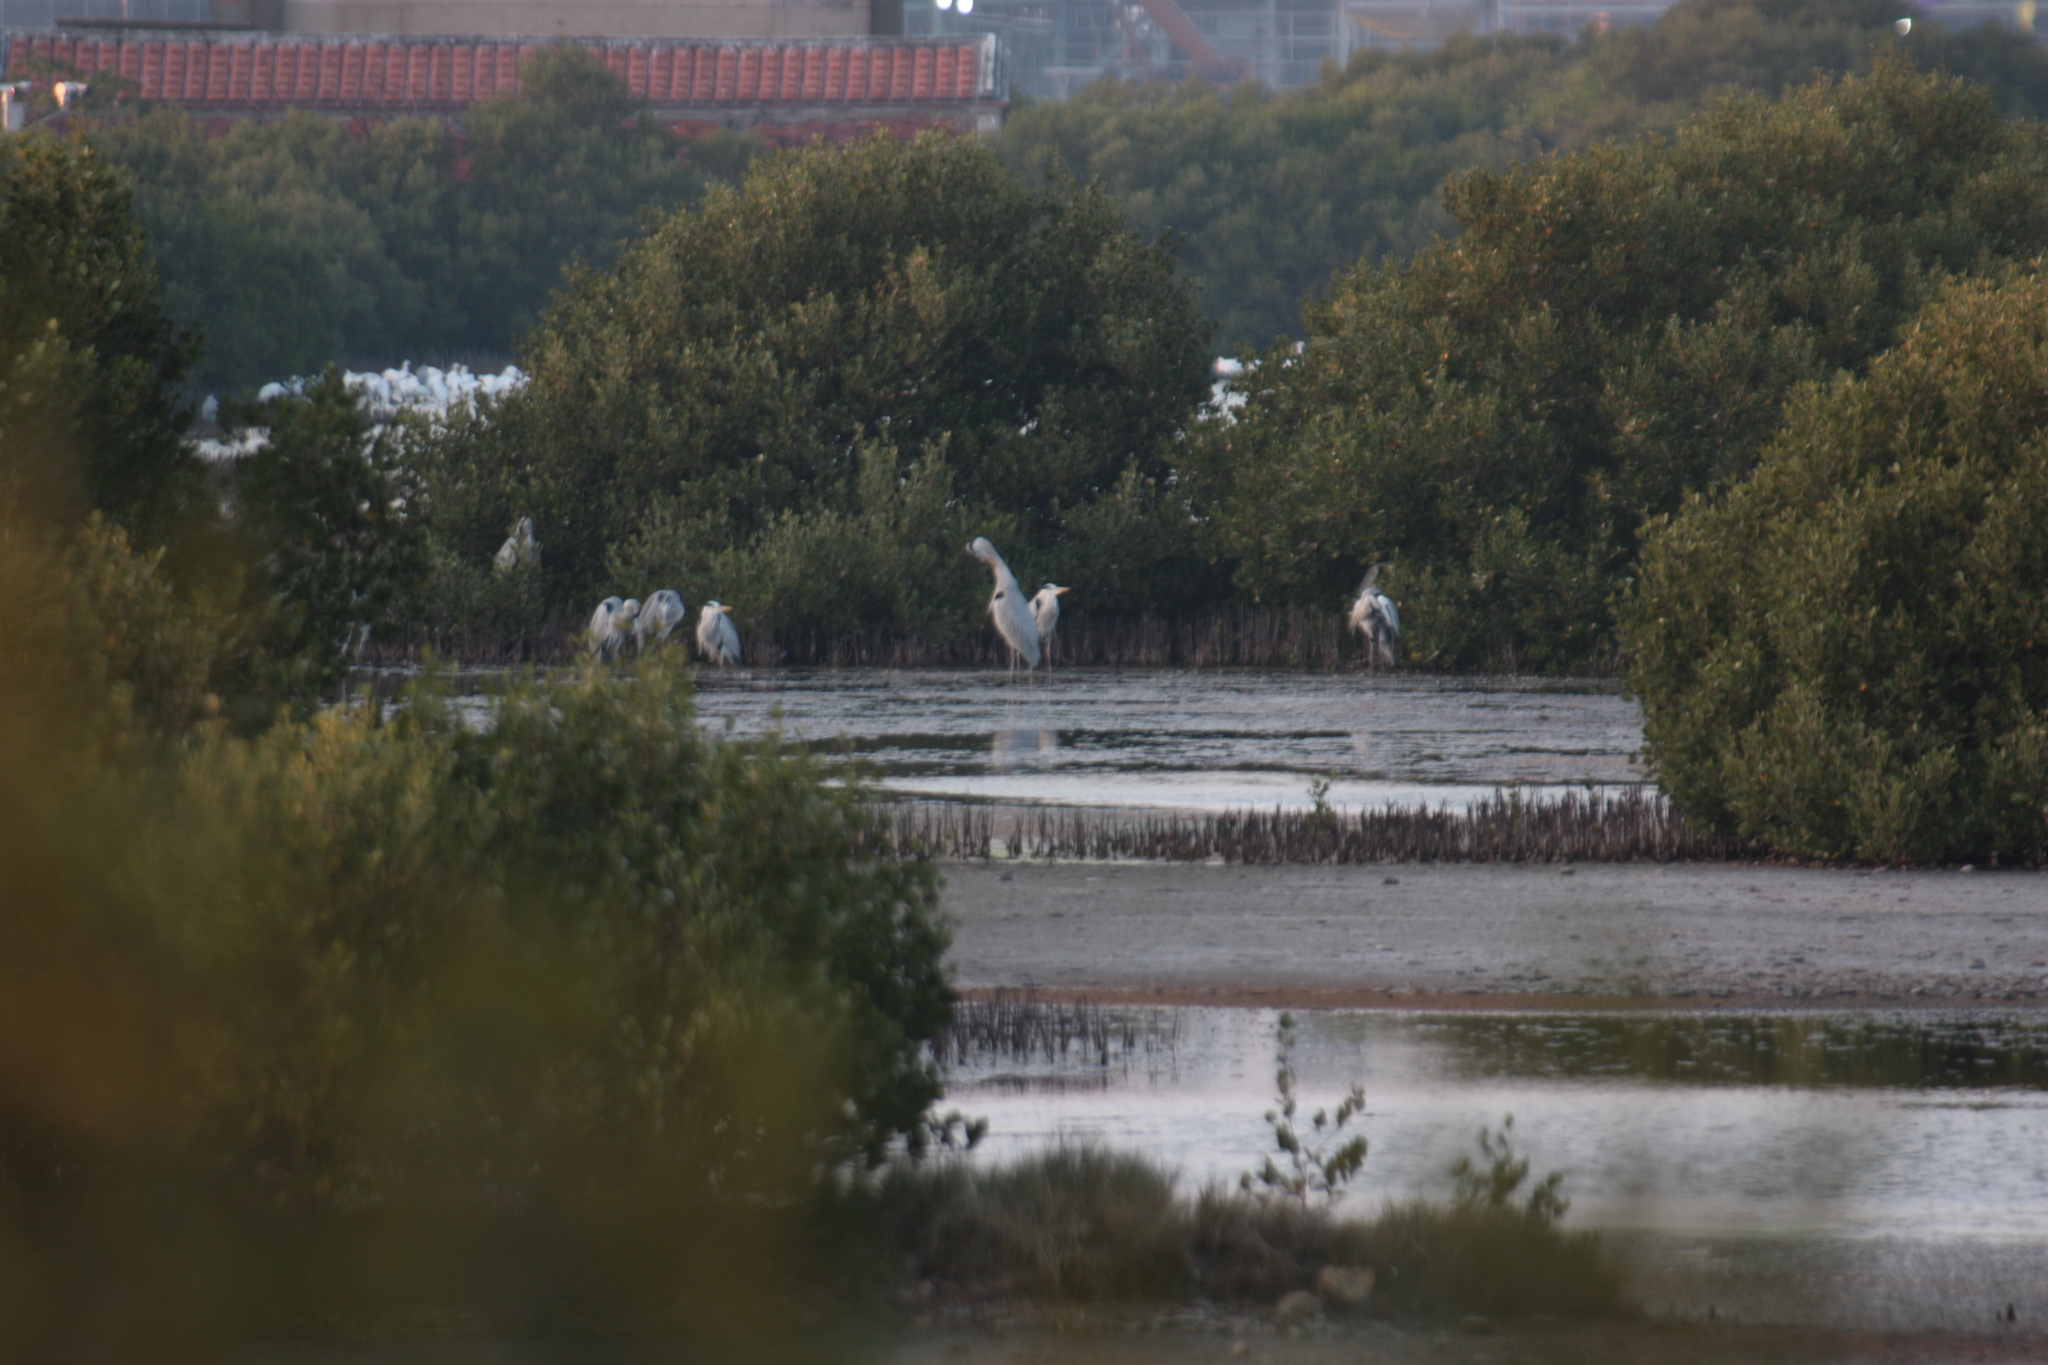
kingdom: Animalia
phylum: Chordata
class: Aves
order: Pelecaniformes
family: Ardeidae
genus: Ardea
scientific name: Ardea cinerea
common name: Grey heron
